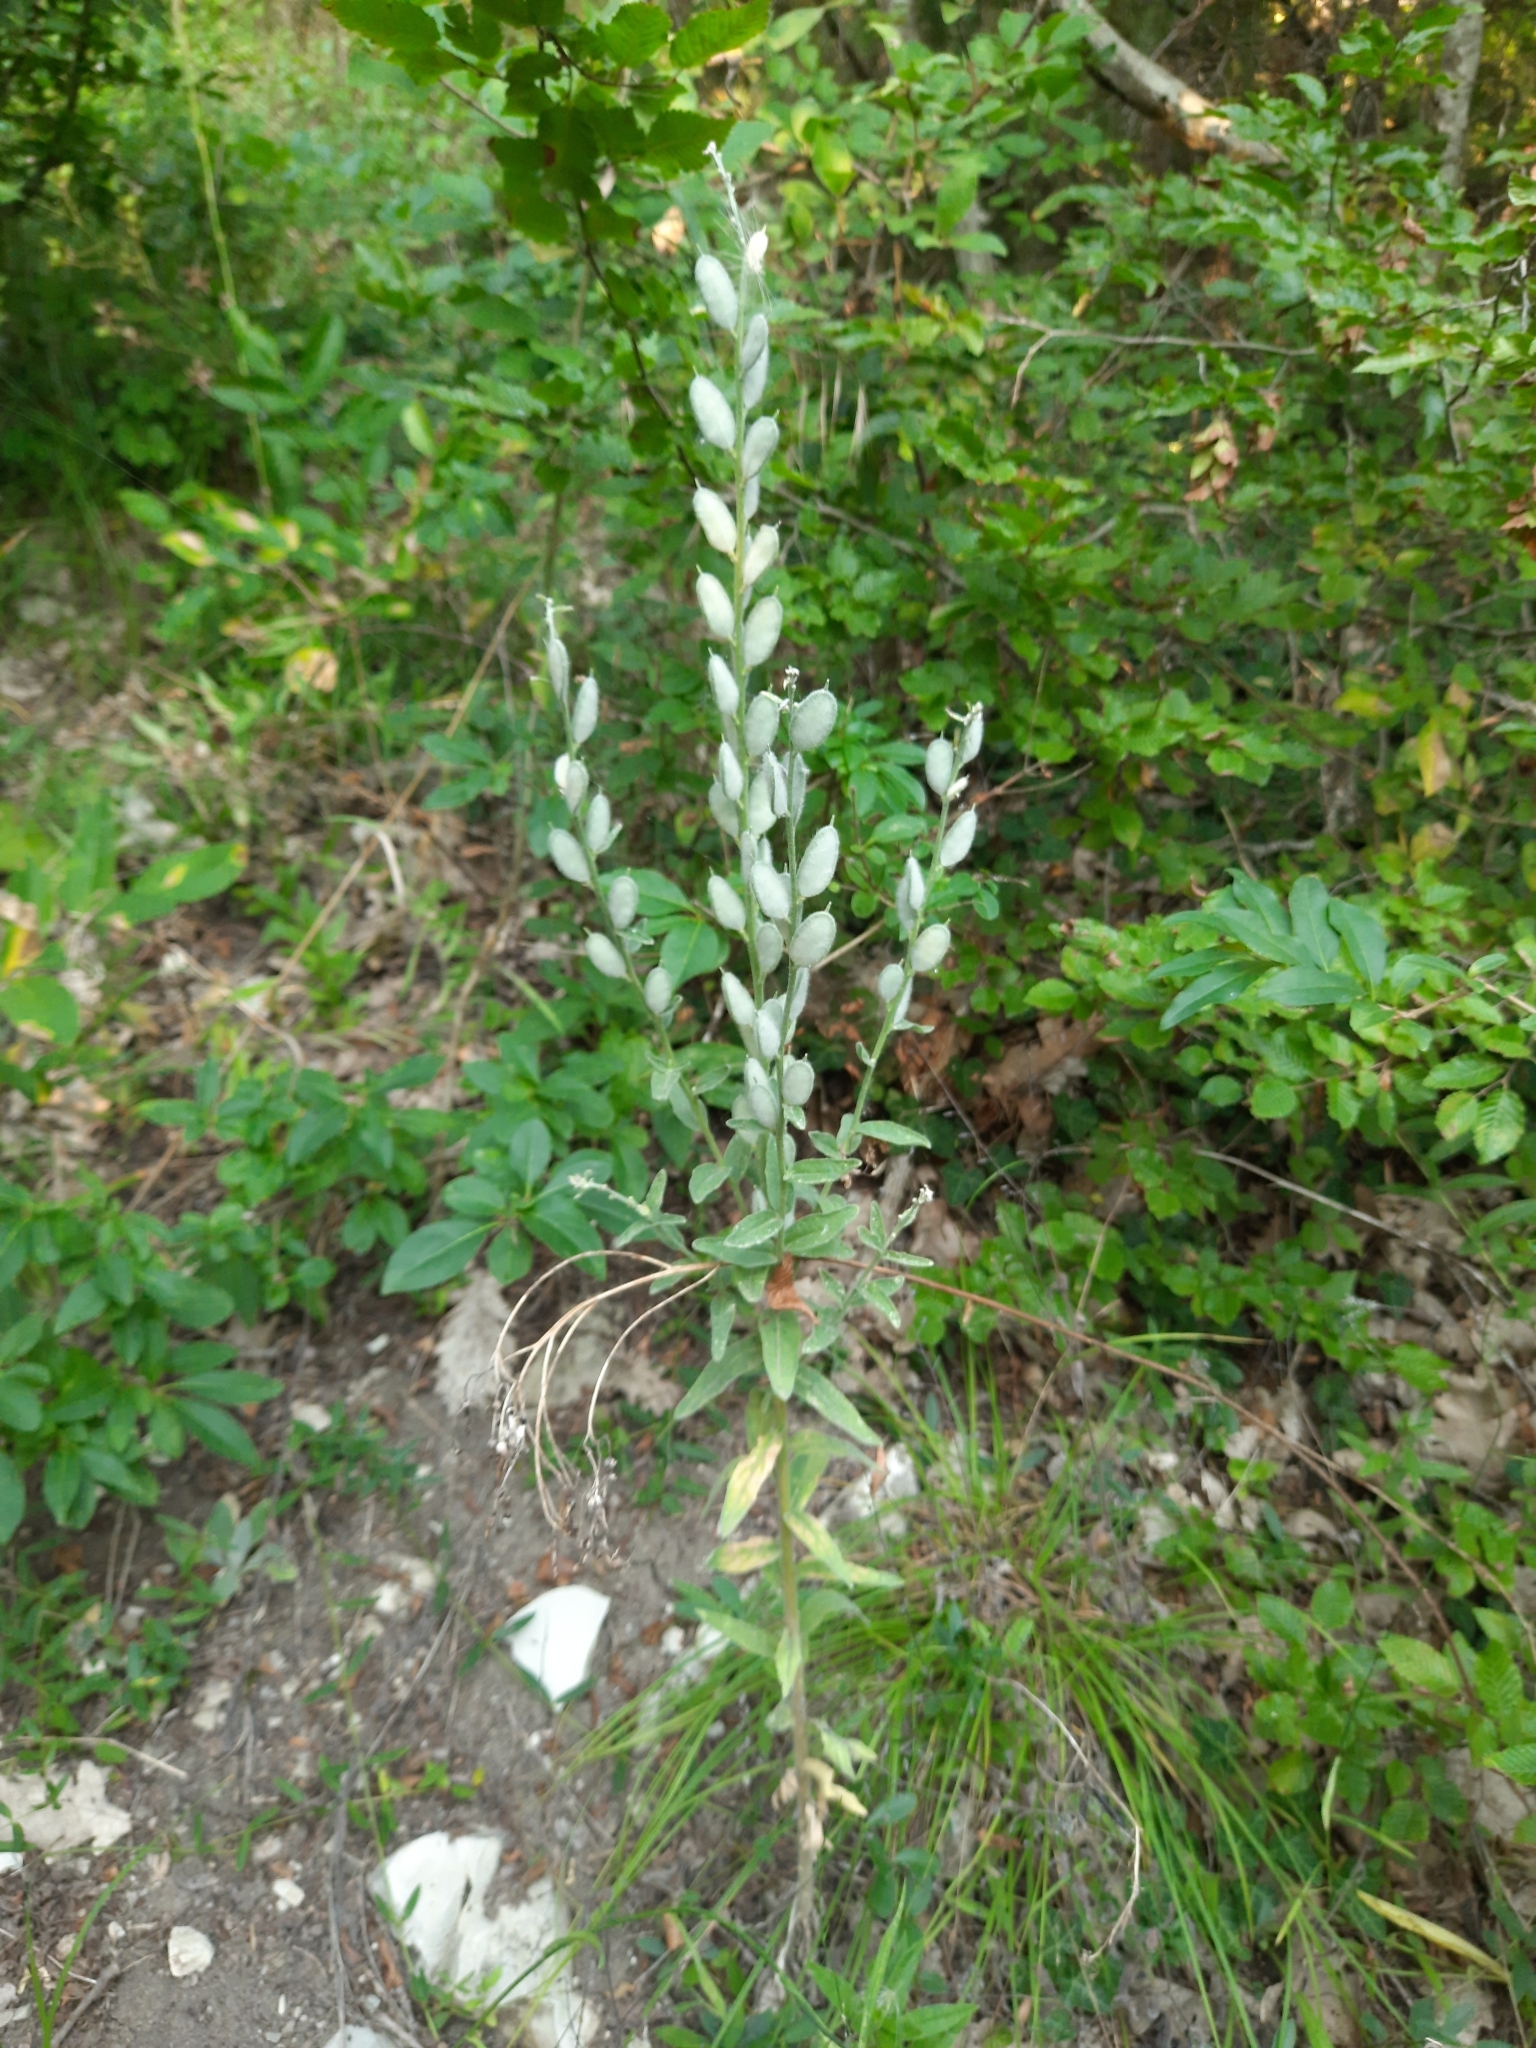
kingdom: Plantae
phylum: Tracheophyta
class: Magnoliopsida
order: Brassicales
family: Brassicaceae
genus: Fibigia
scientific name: Fibigia clypeata
